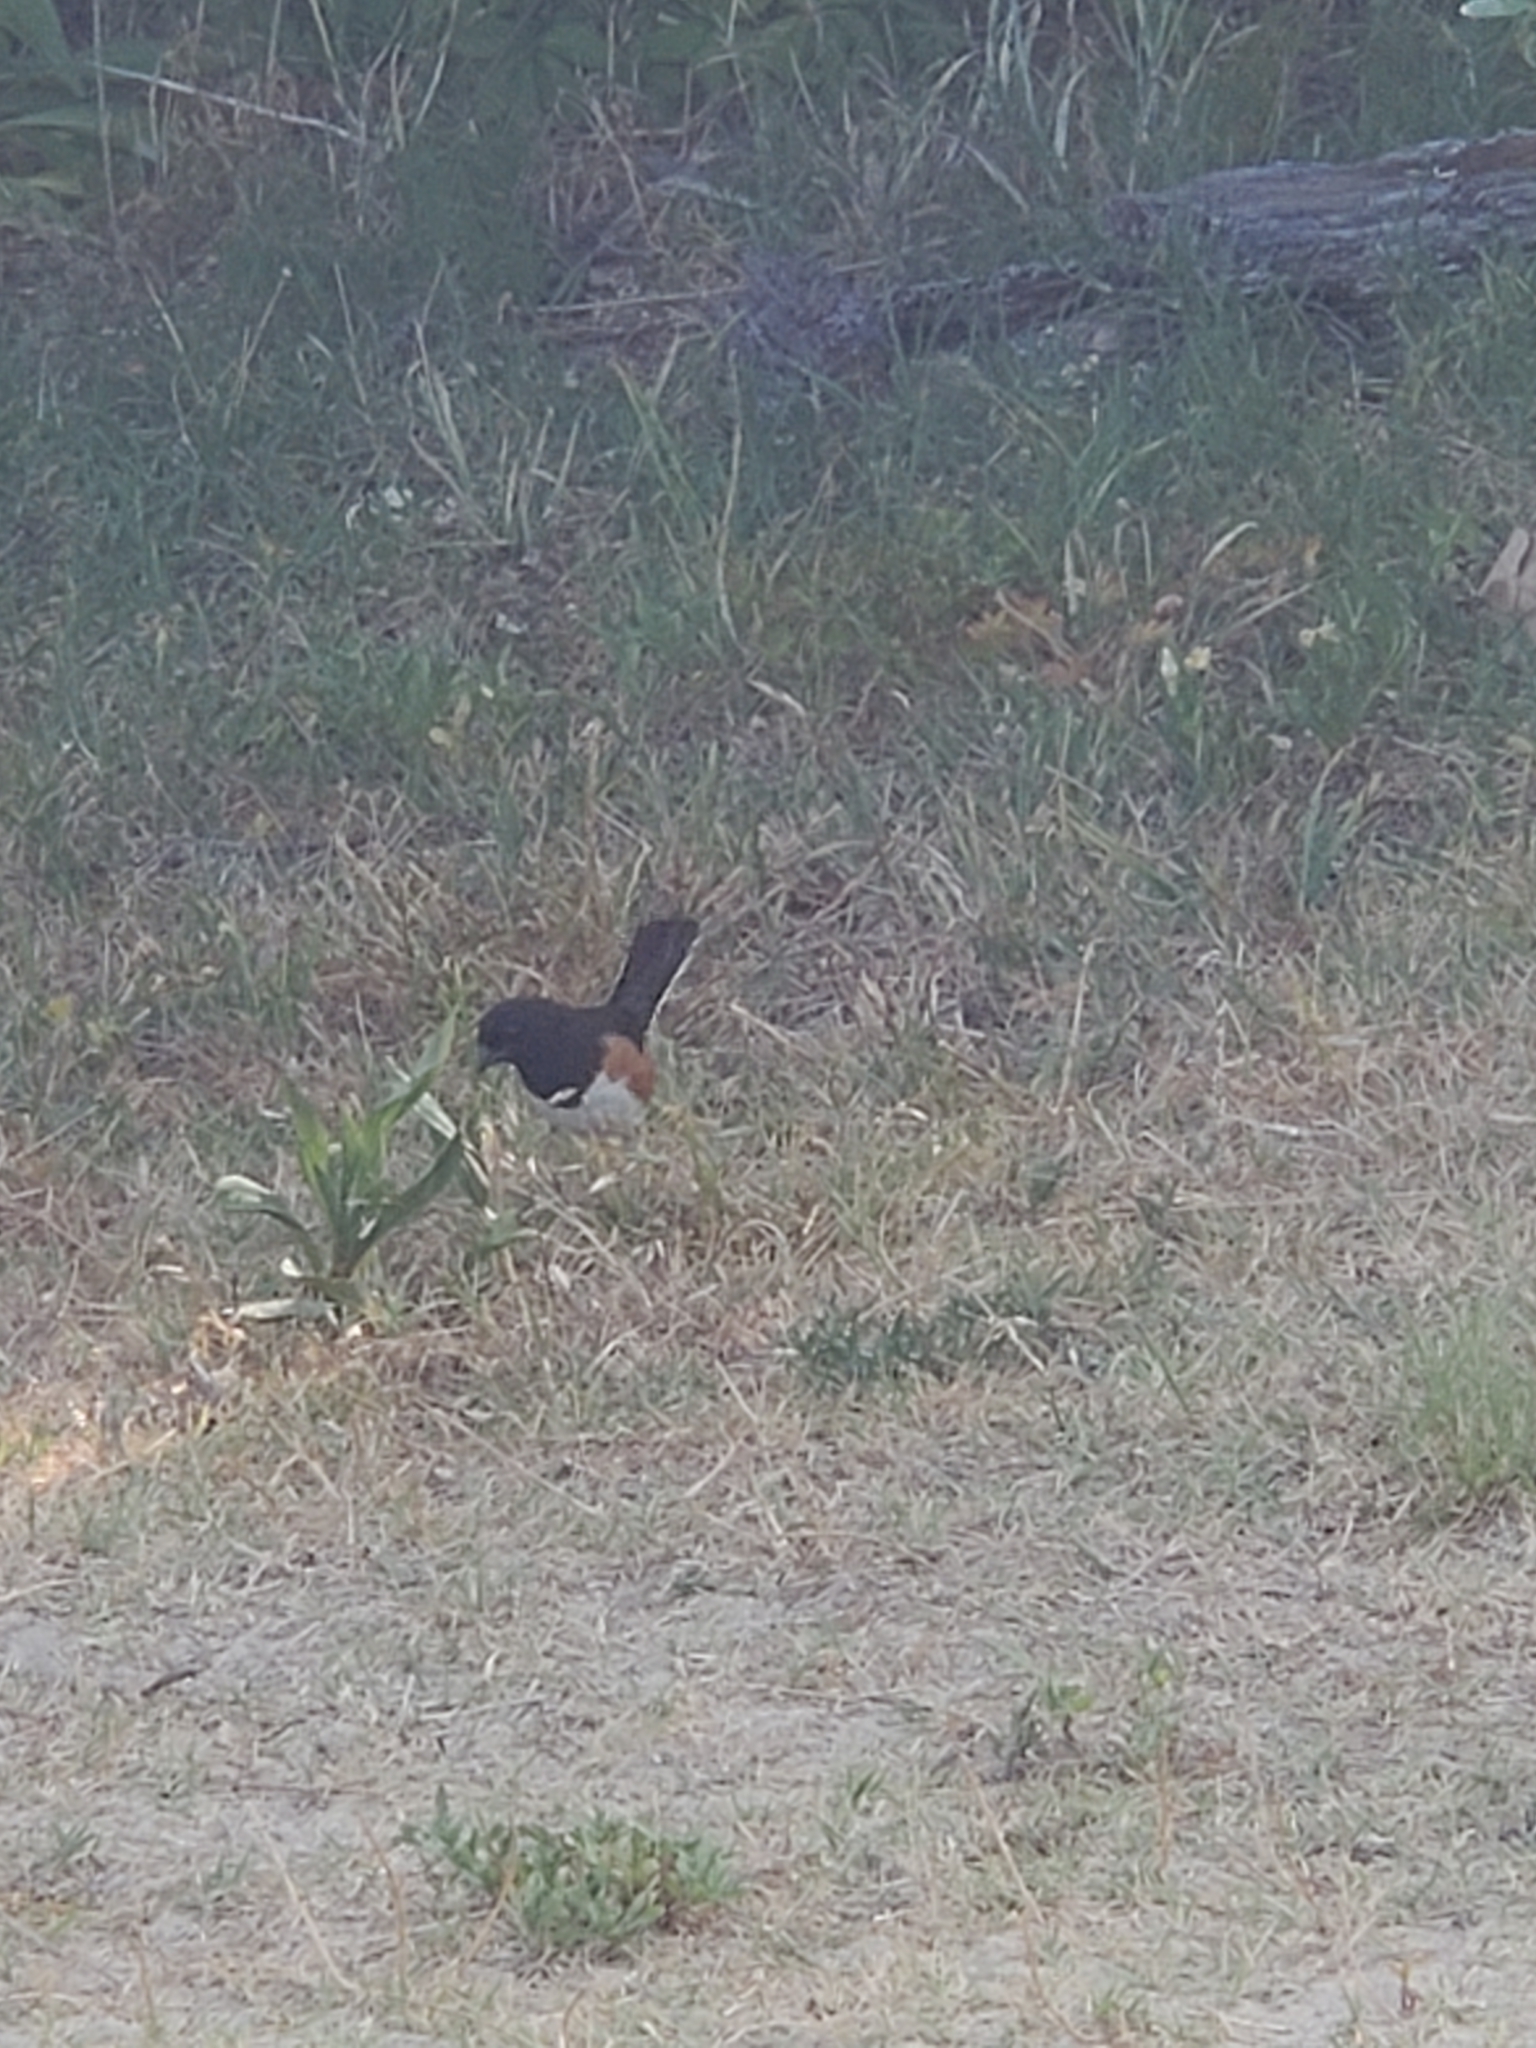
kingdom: Animalia
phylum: Chordata
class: Aves
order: Passeriformes
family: Passerellidae
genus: Pipilo
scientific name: Pipilo erythrophthalmus
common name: Eastern towhee
